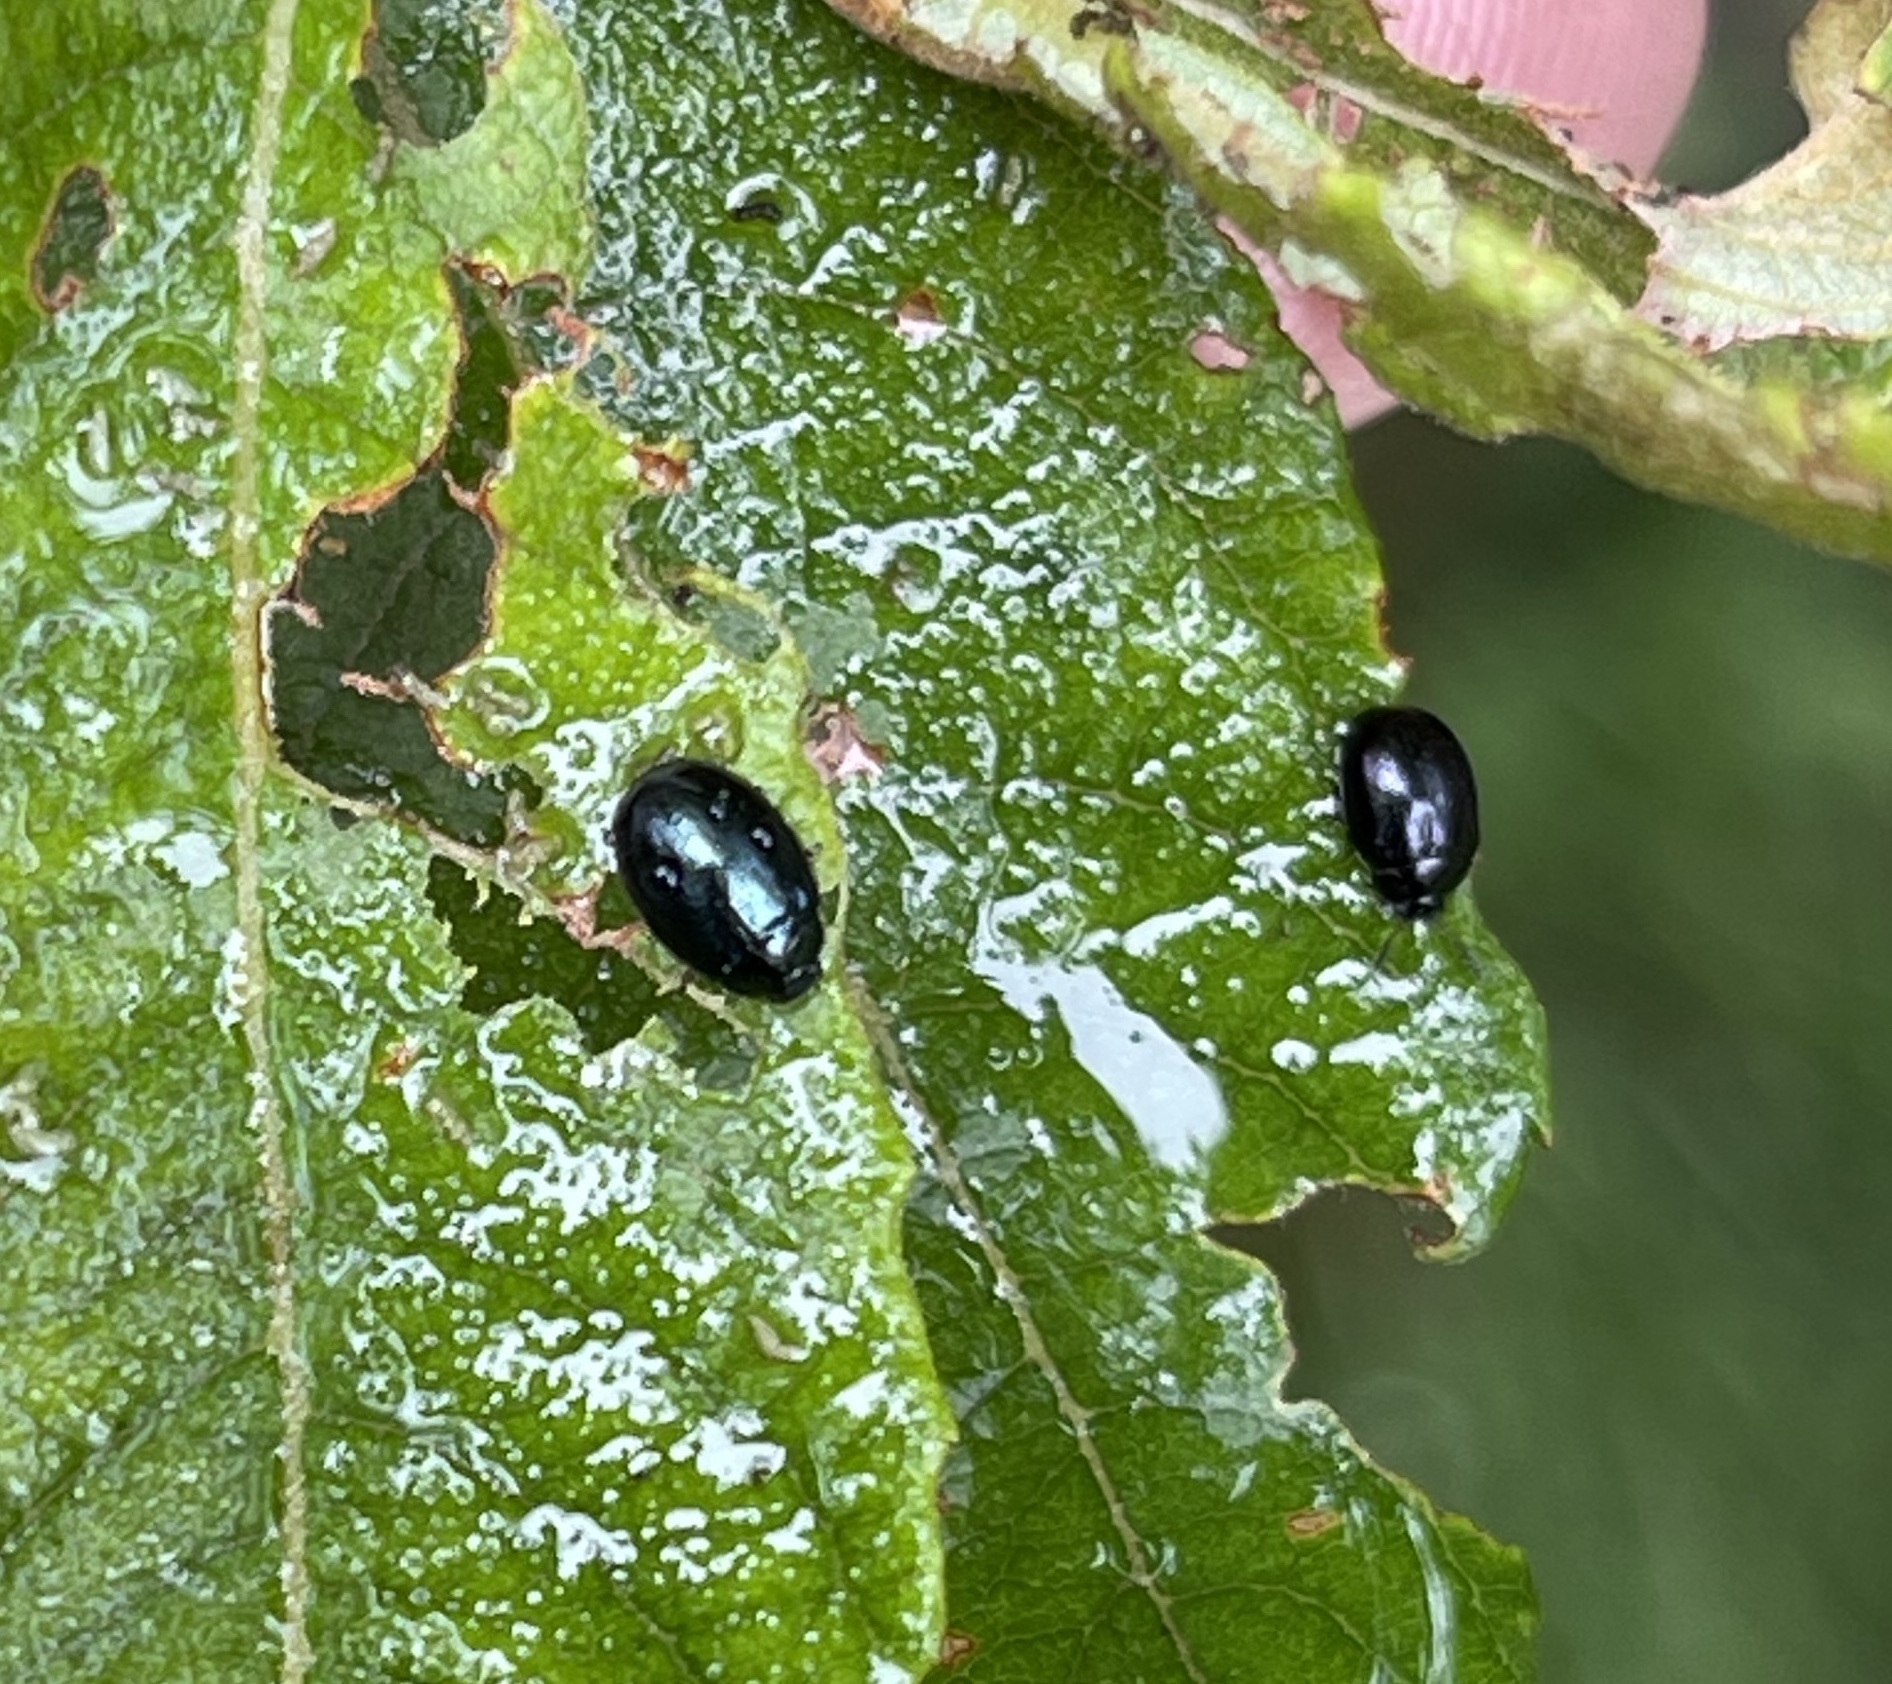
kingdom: Animalia
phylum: Arthropoda
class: Insecta
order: Coleoptera
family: Chrysomelidae
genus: Plagiodera
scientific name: Plagiodera versicolora
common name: Imported willow leaf beetle
